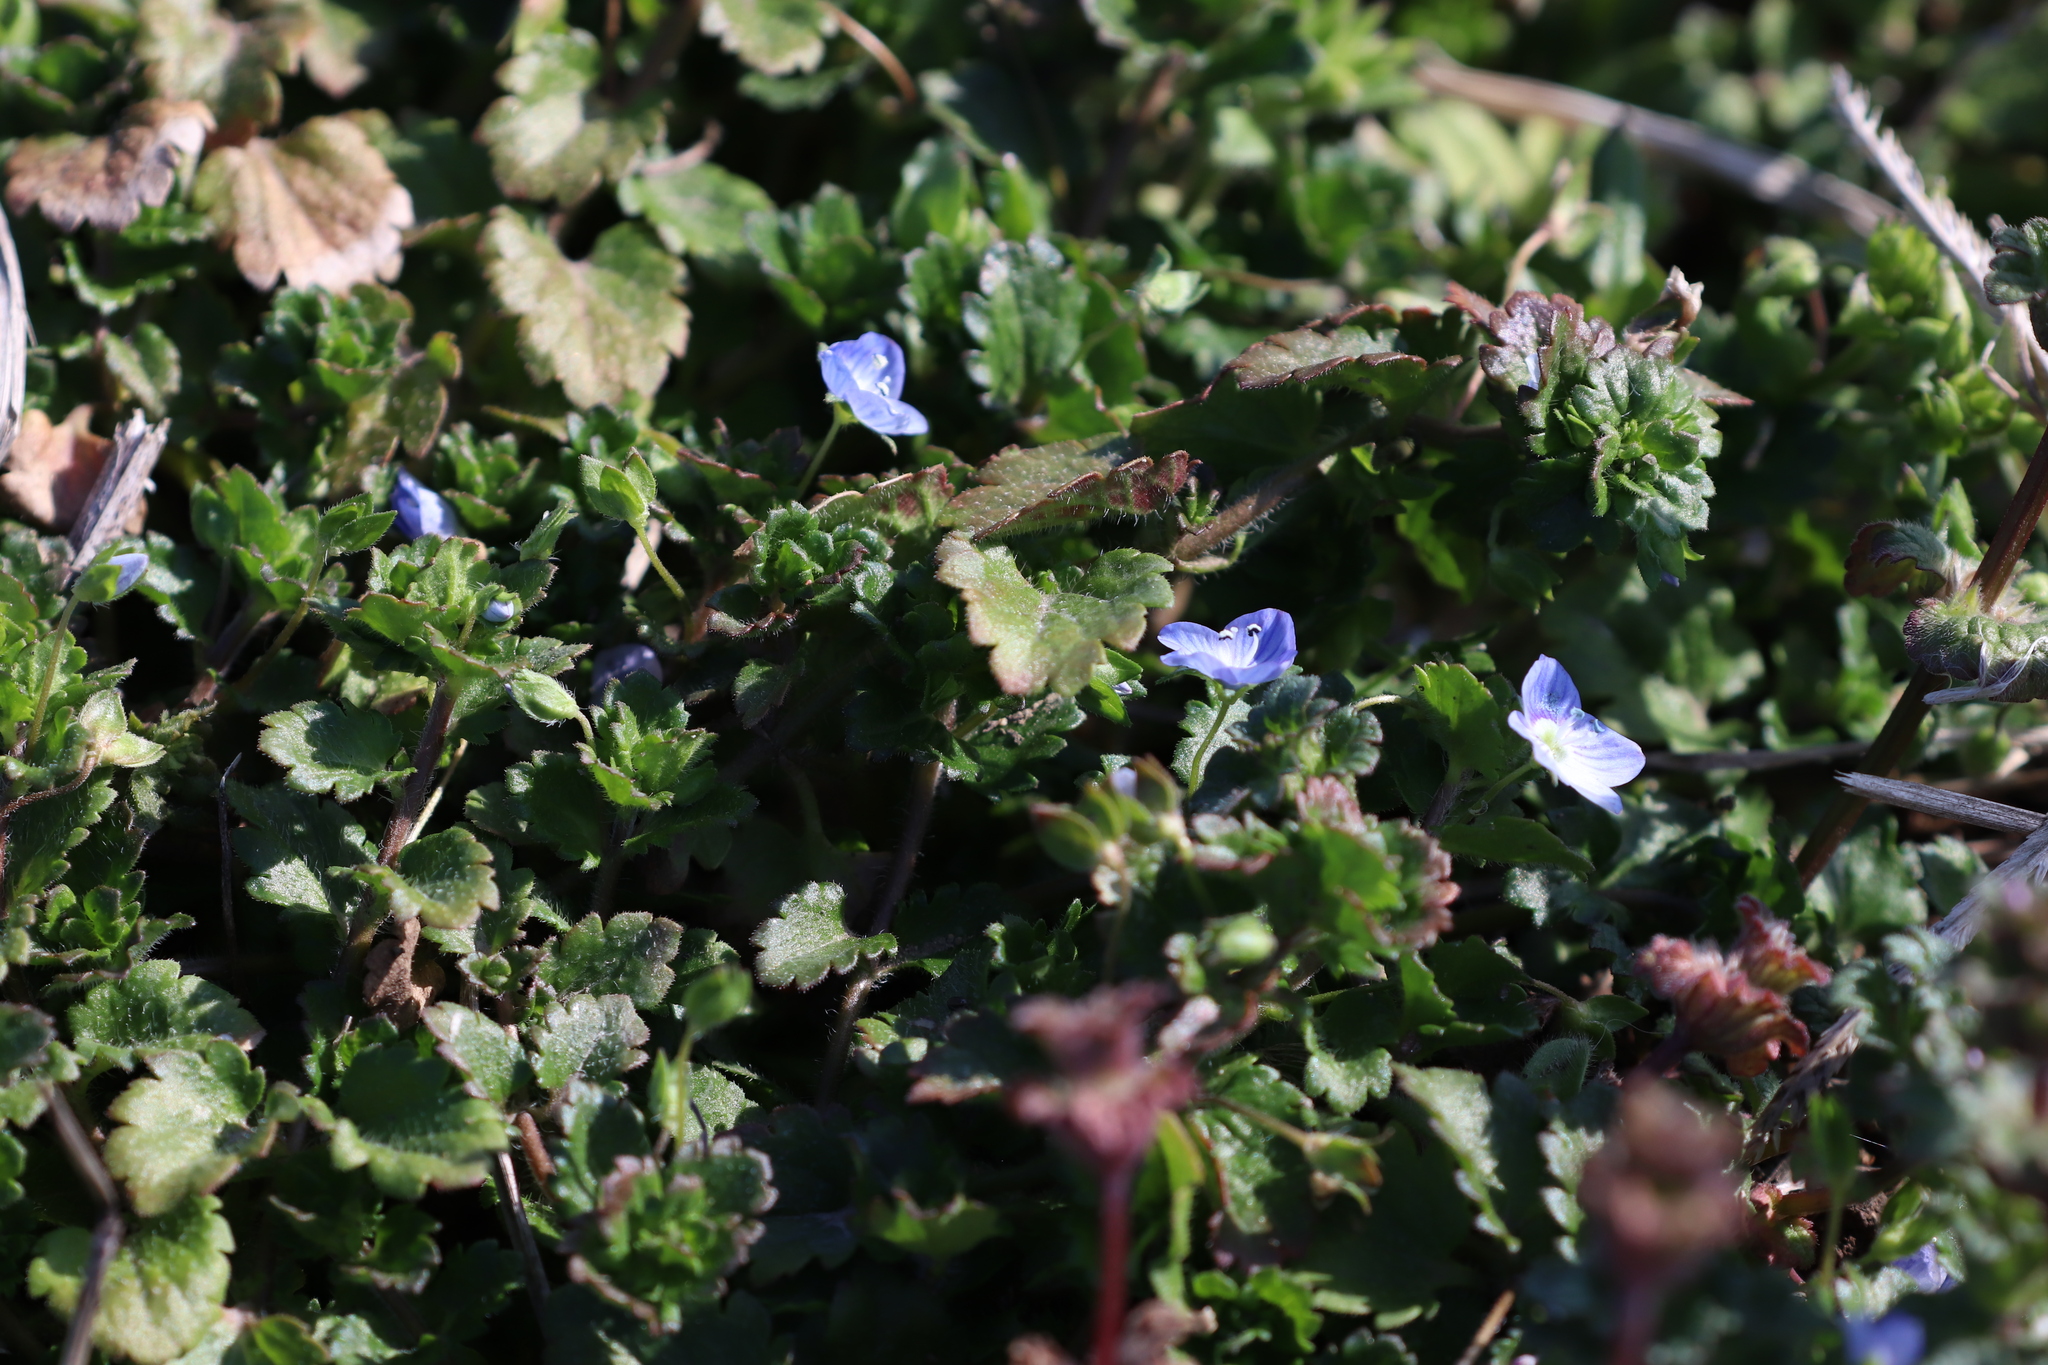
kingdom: Plantae
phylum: Tracheophyta
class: Magnoliopsida
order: Lamiales
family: Plantaginaceae
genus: Veronica
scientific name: Veronica persica
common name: Common field-speedwell
